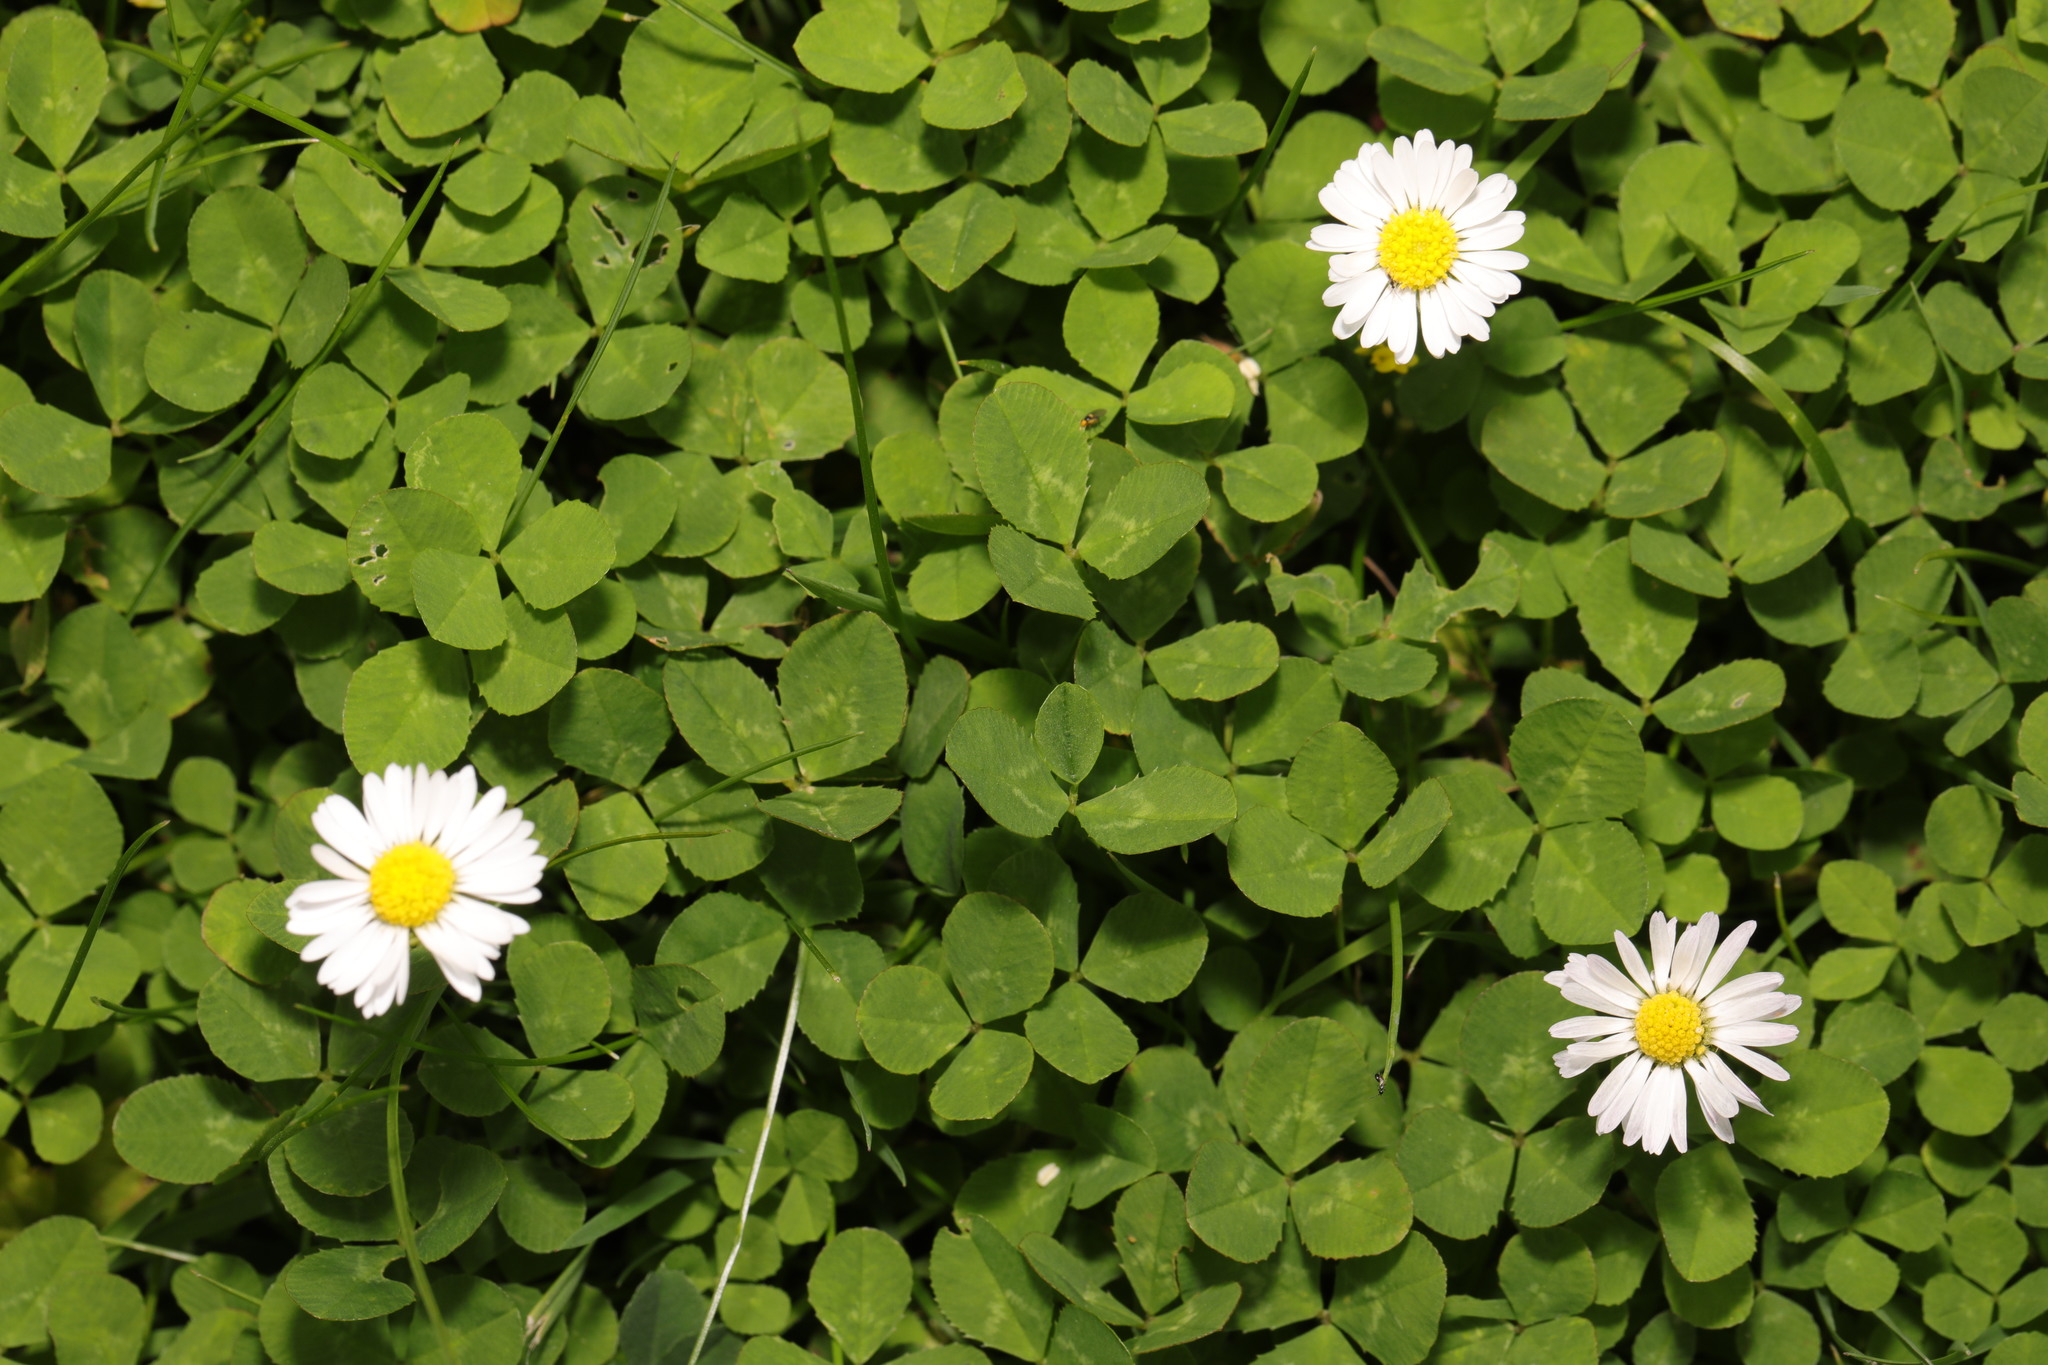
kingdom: Plantae
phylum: Tracheophyta
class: Magnoliopsida
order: Asterales
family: Asteraceae
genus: Bellis
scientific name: Bellis perennis
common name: Lawndaisy
